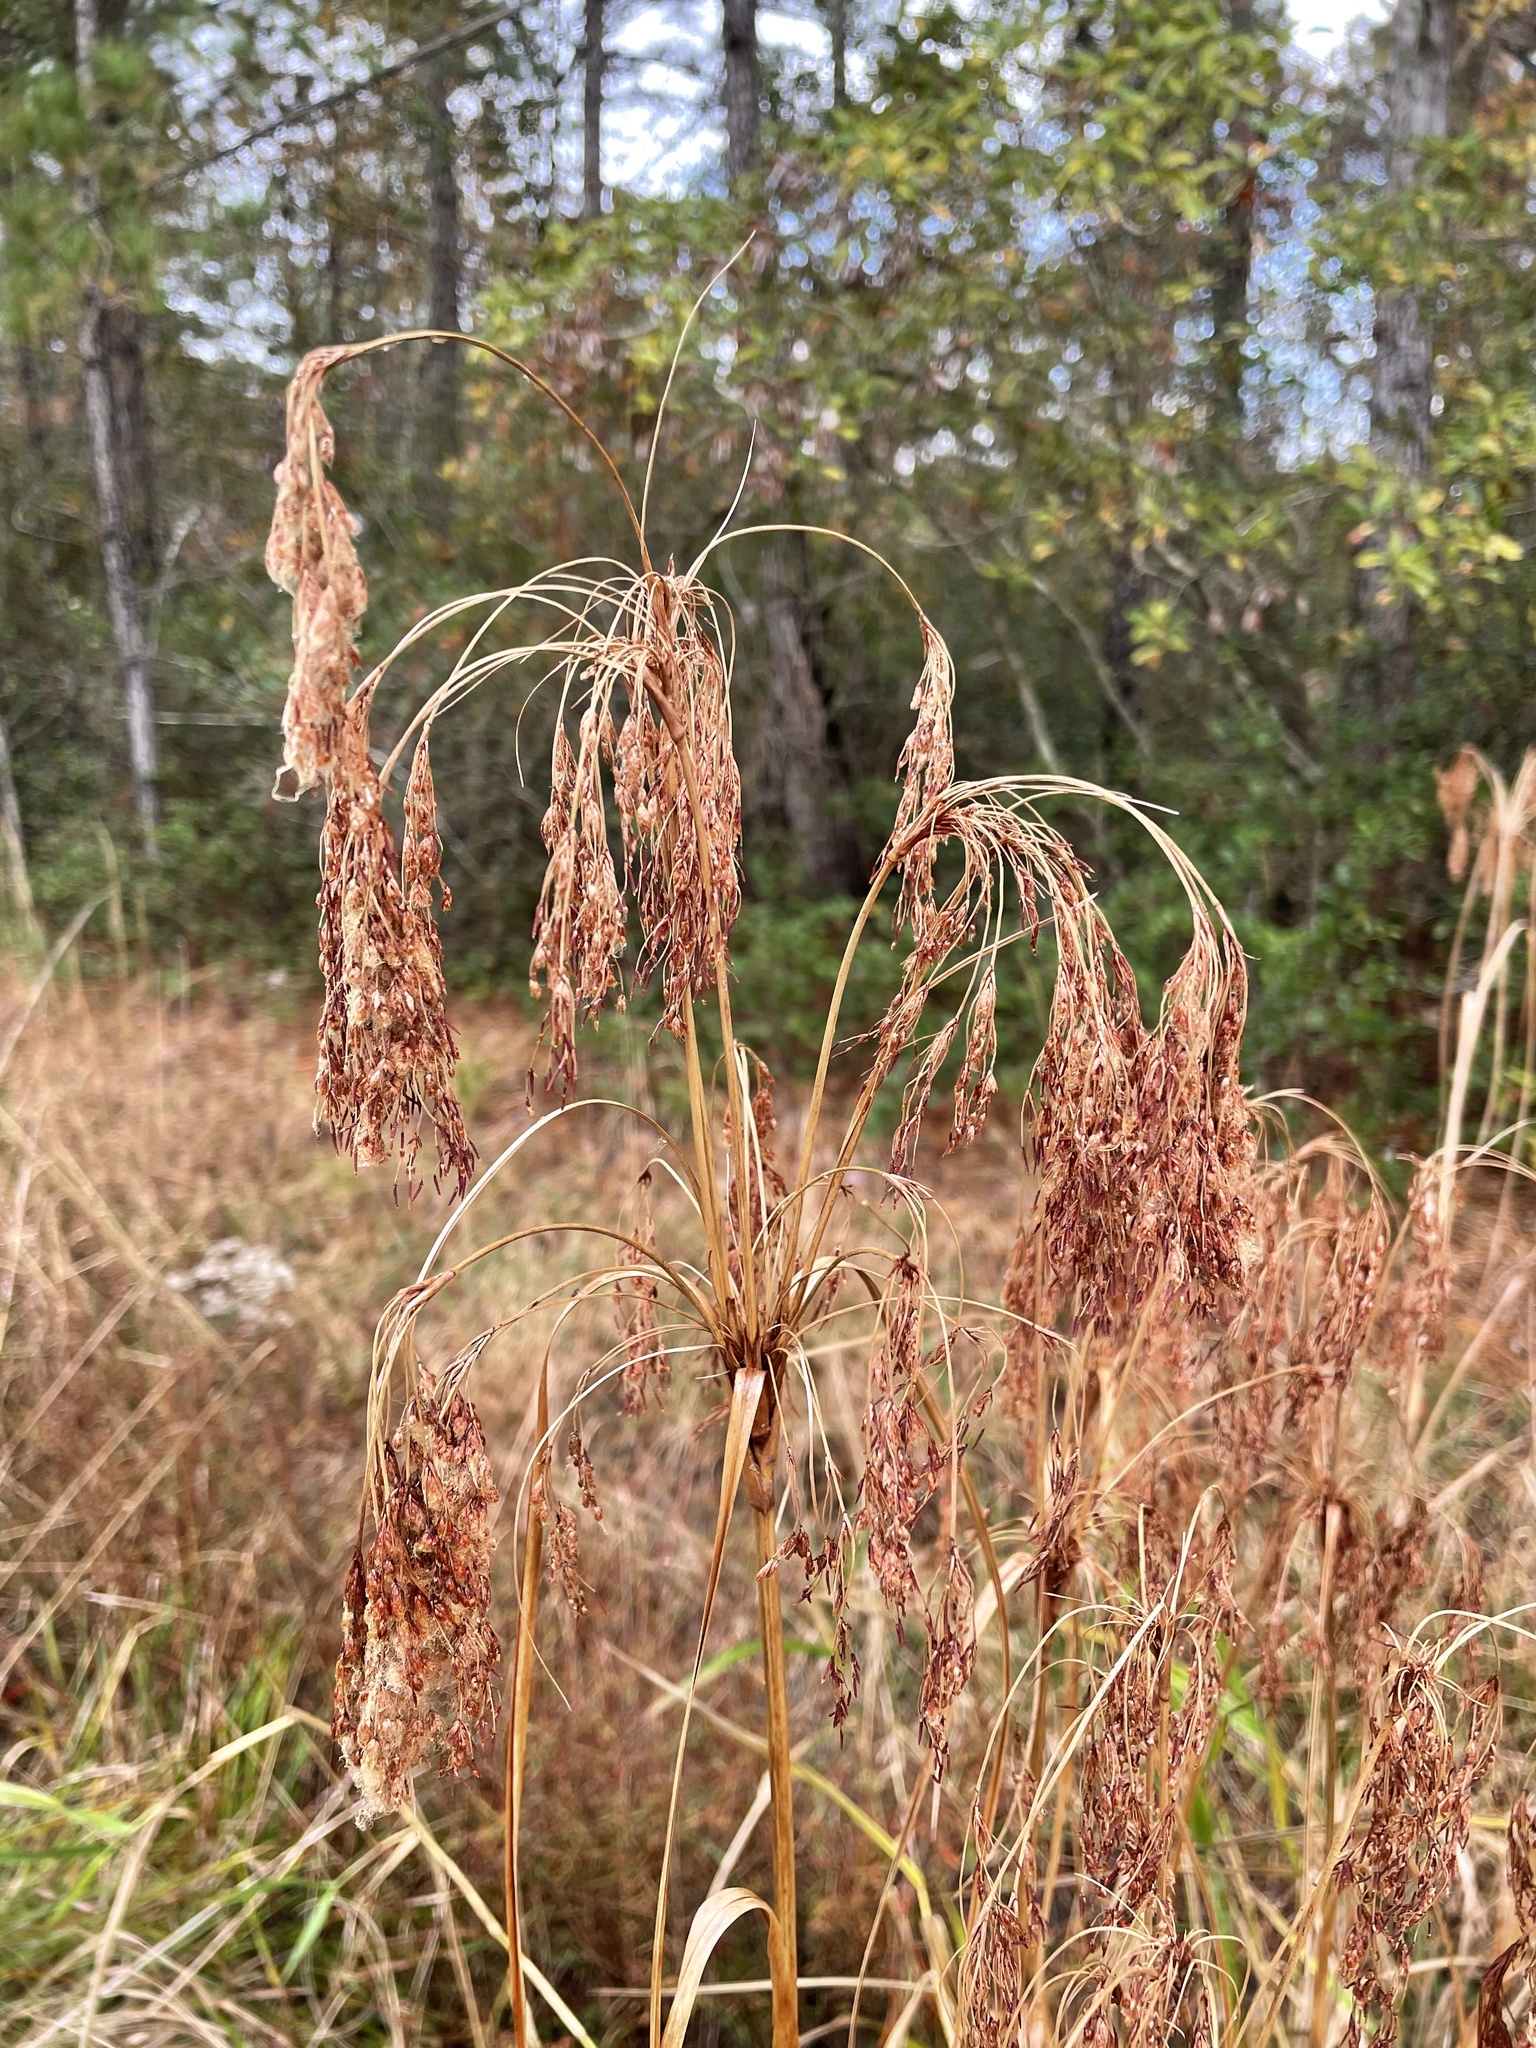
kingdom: Plantae
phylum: Tracheophyta
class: Liliopsida
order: Poales
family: Cyperaceae
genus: Scirpus
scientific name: Scirpus cyperinus
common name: Black-sheathed bulrush
